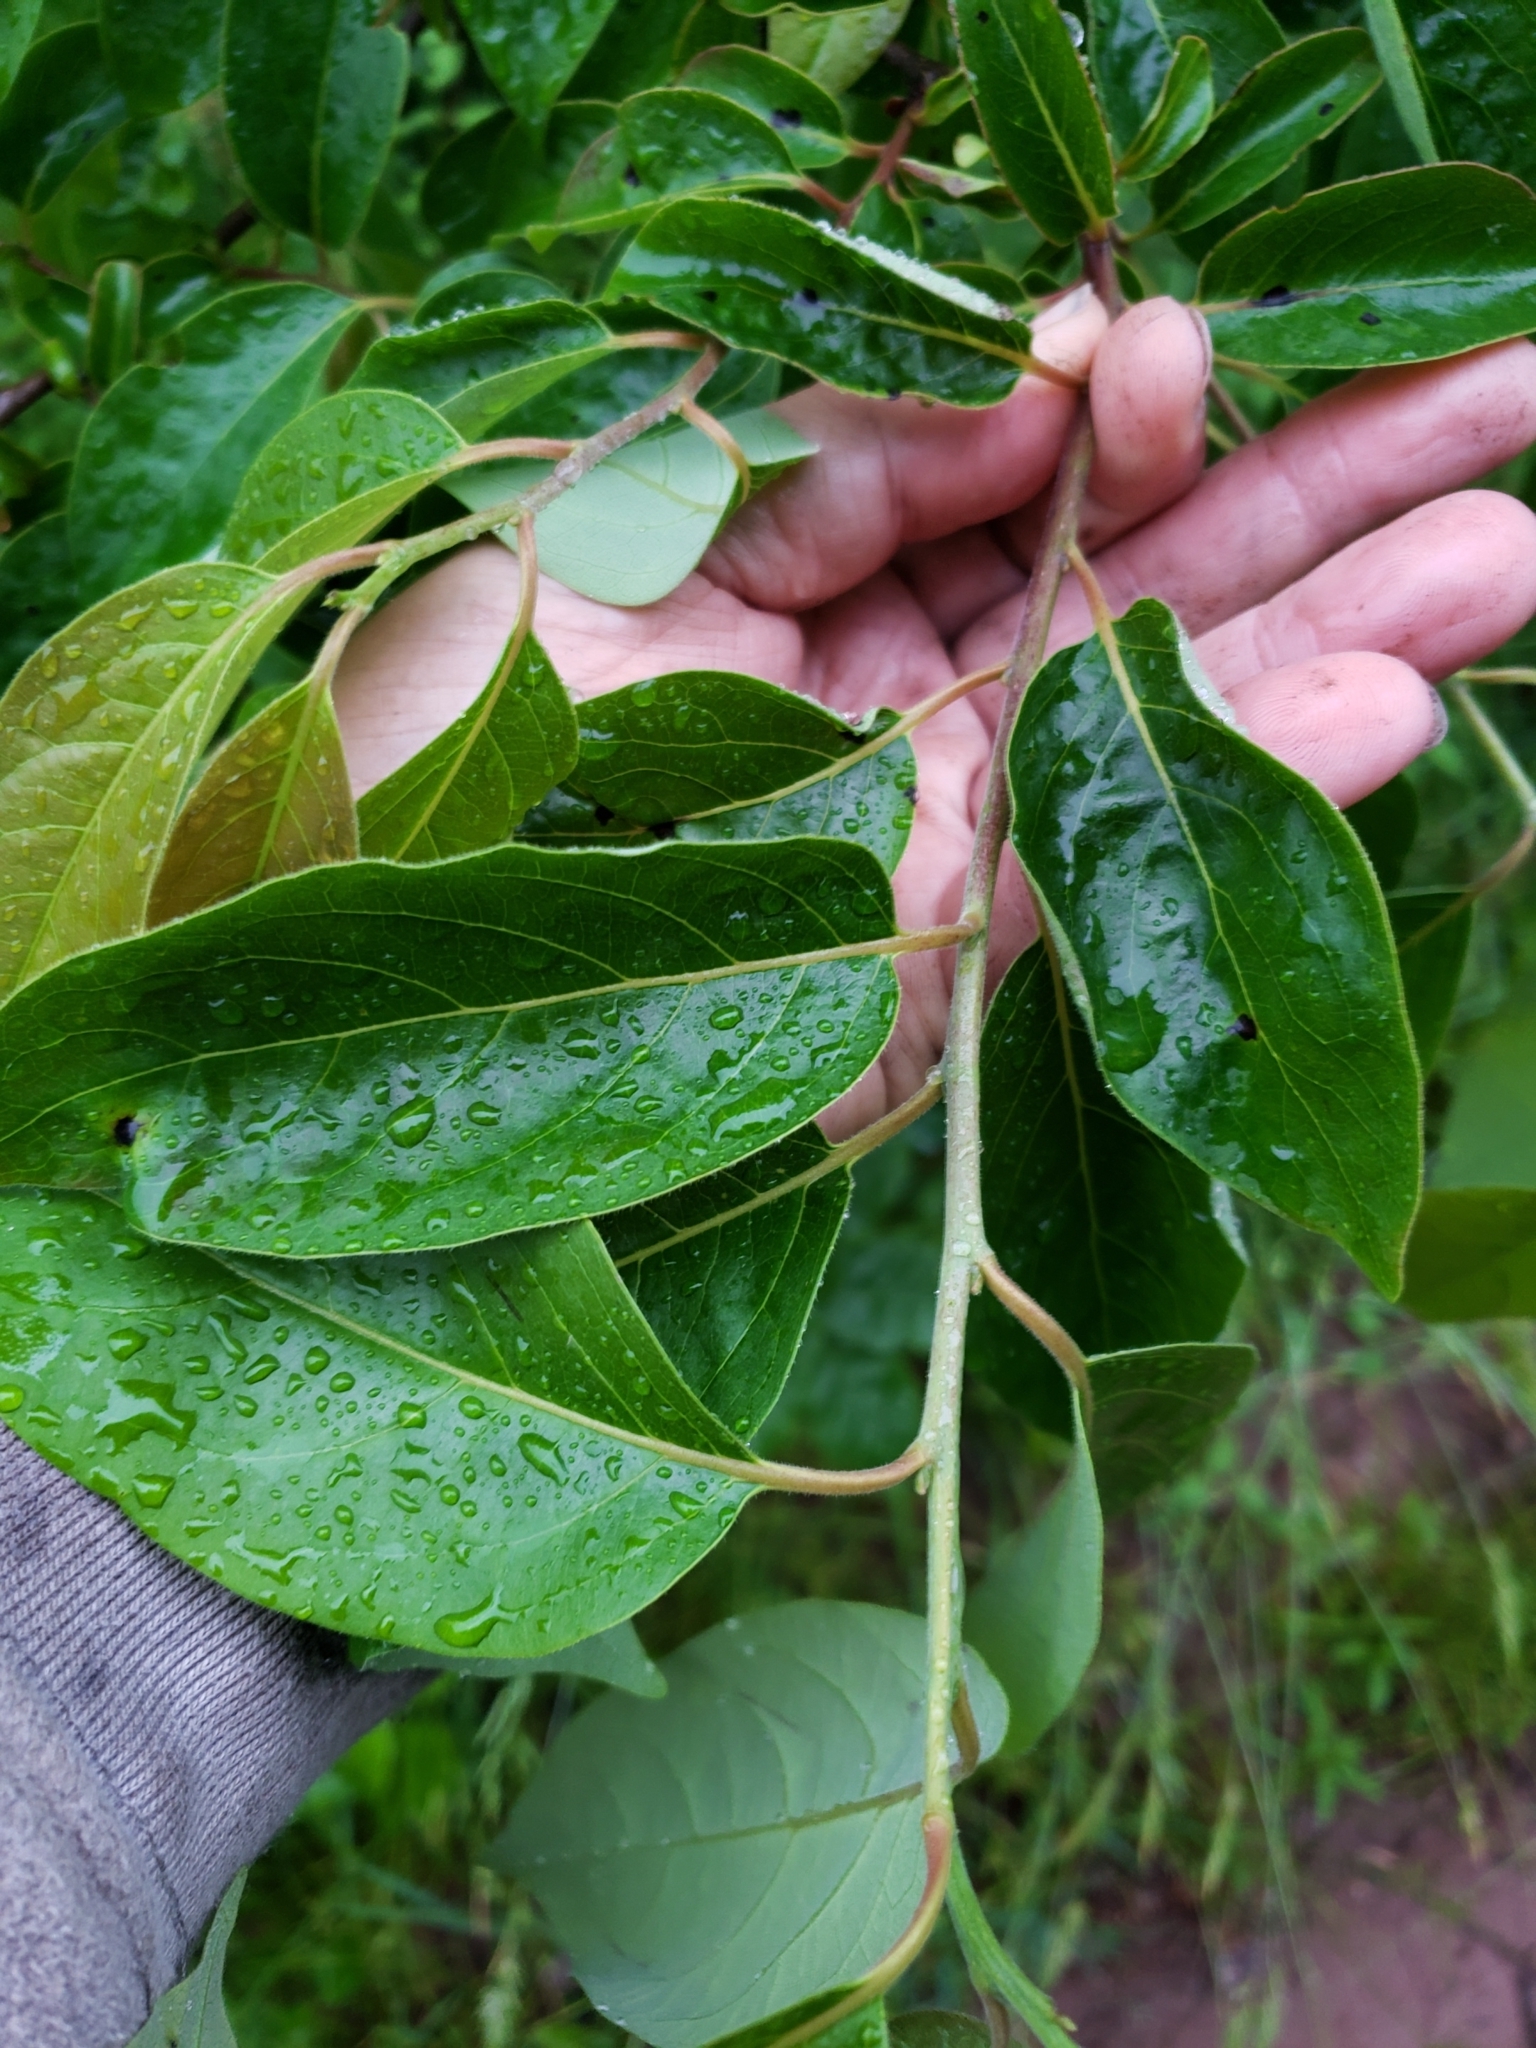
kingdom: Plantae
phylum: Tracheophyta
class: Magnoliopsida
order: Ericales
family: Ebenaceae
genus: Diospyros
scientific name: Diospyros virginiana
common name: Persimmon
